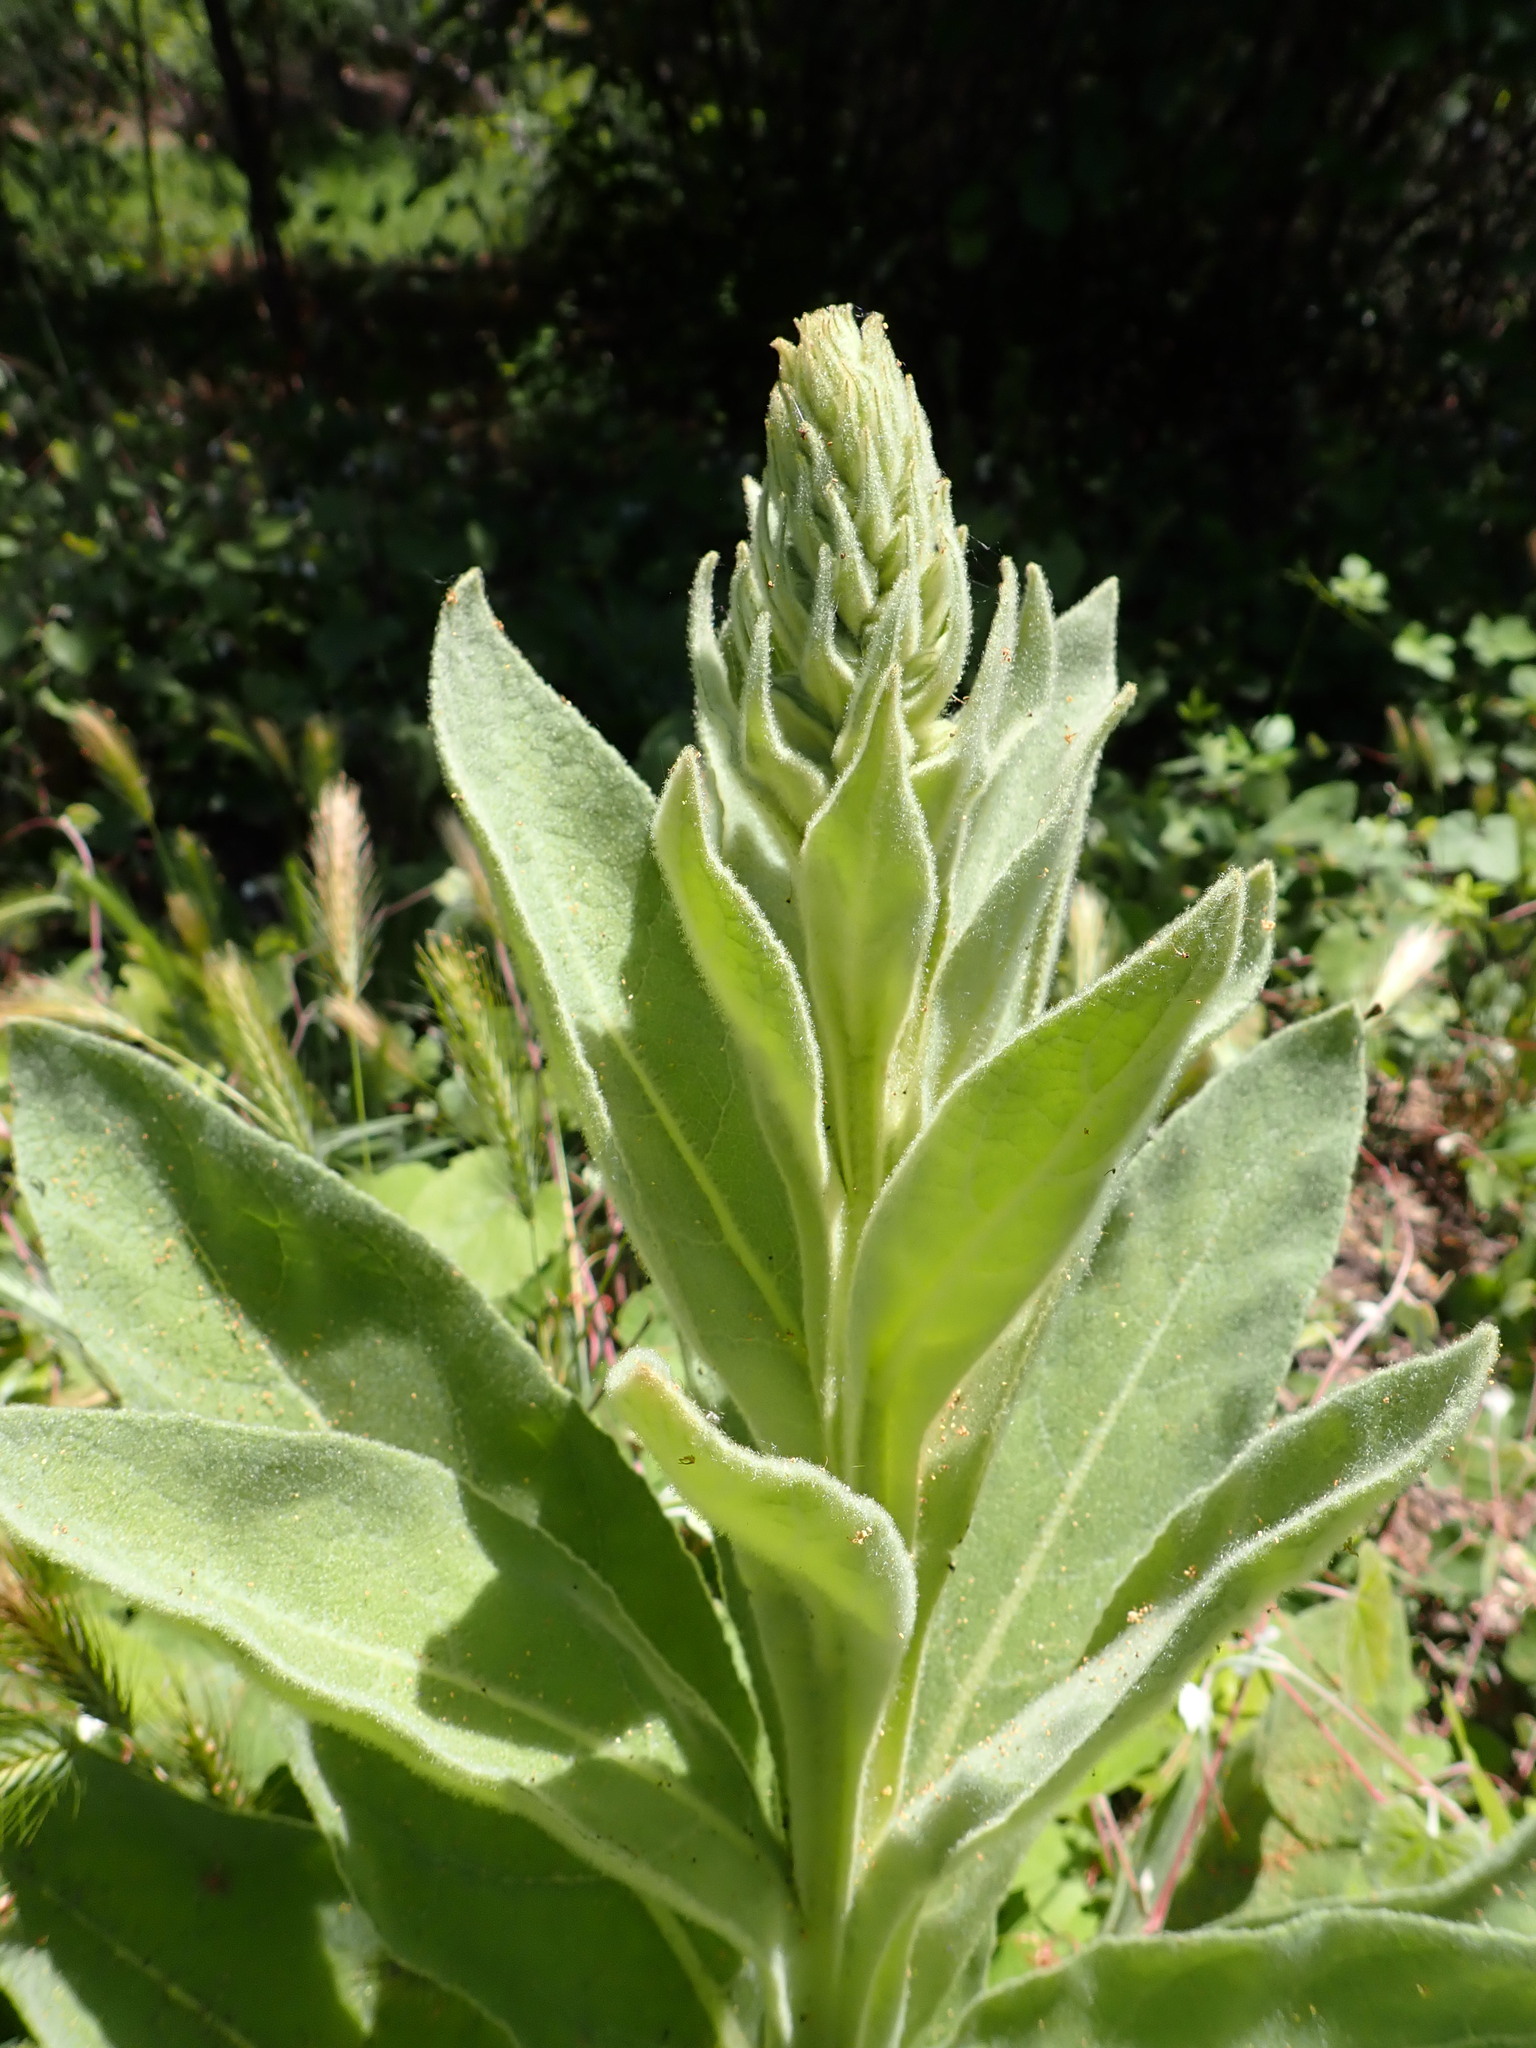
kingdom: Plantae
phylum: Tracheophyta
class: Magnoliopsida
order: Lamiales
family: Scrophulariaceae
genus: Verbascum
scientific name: Verbascum thapsus
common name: Common mullein
